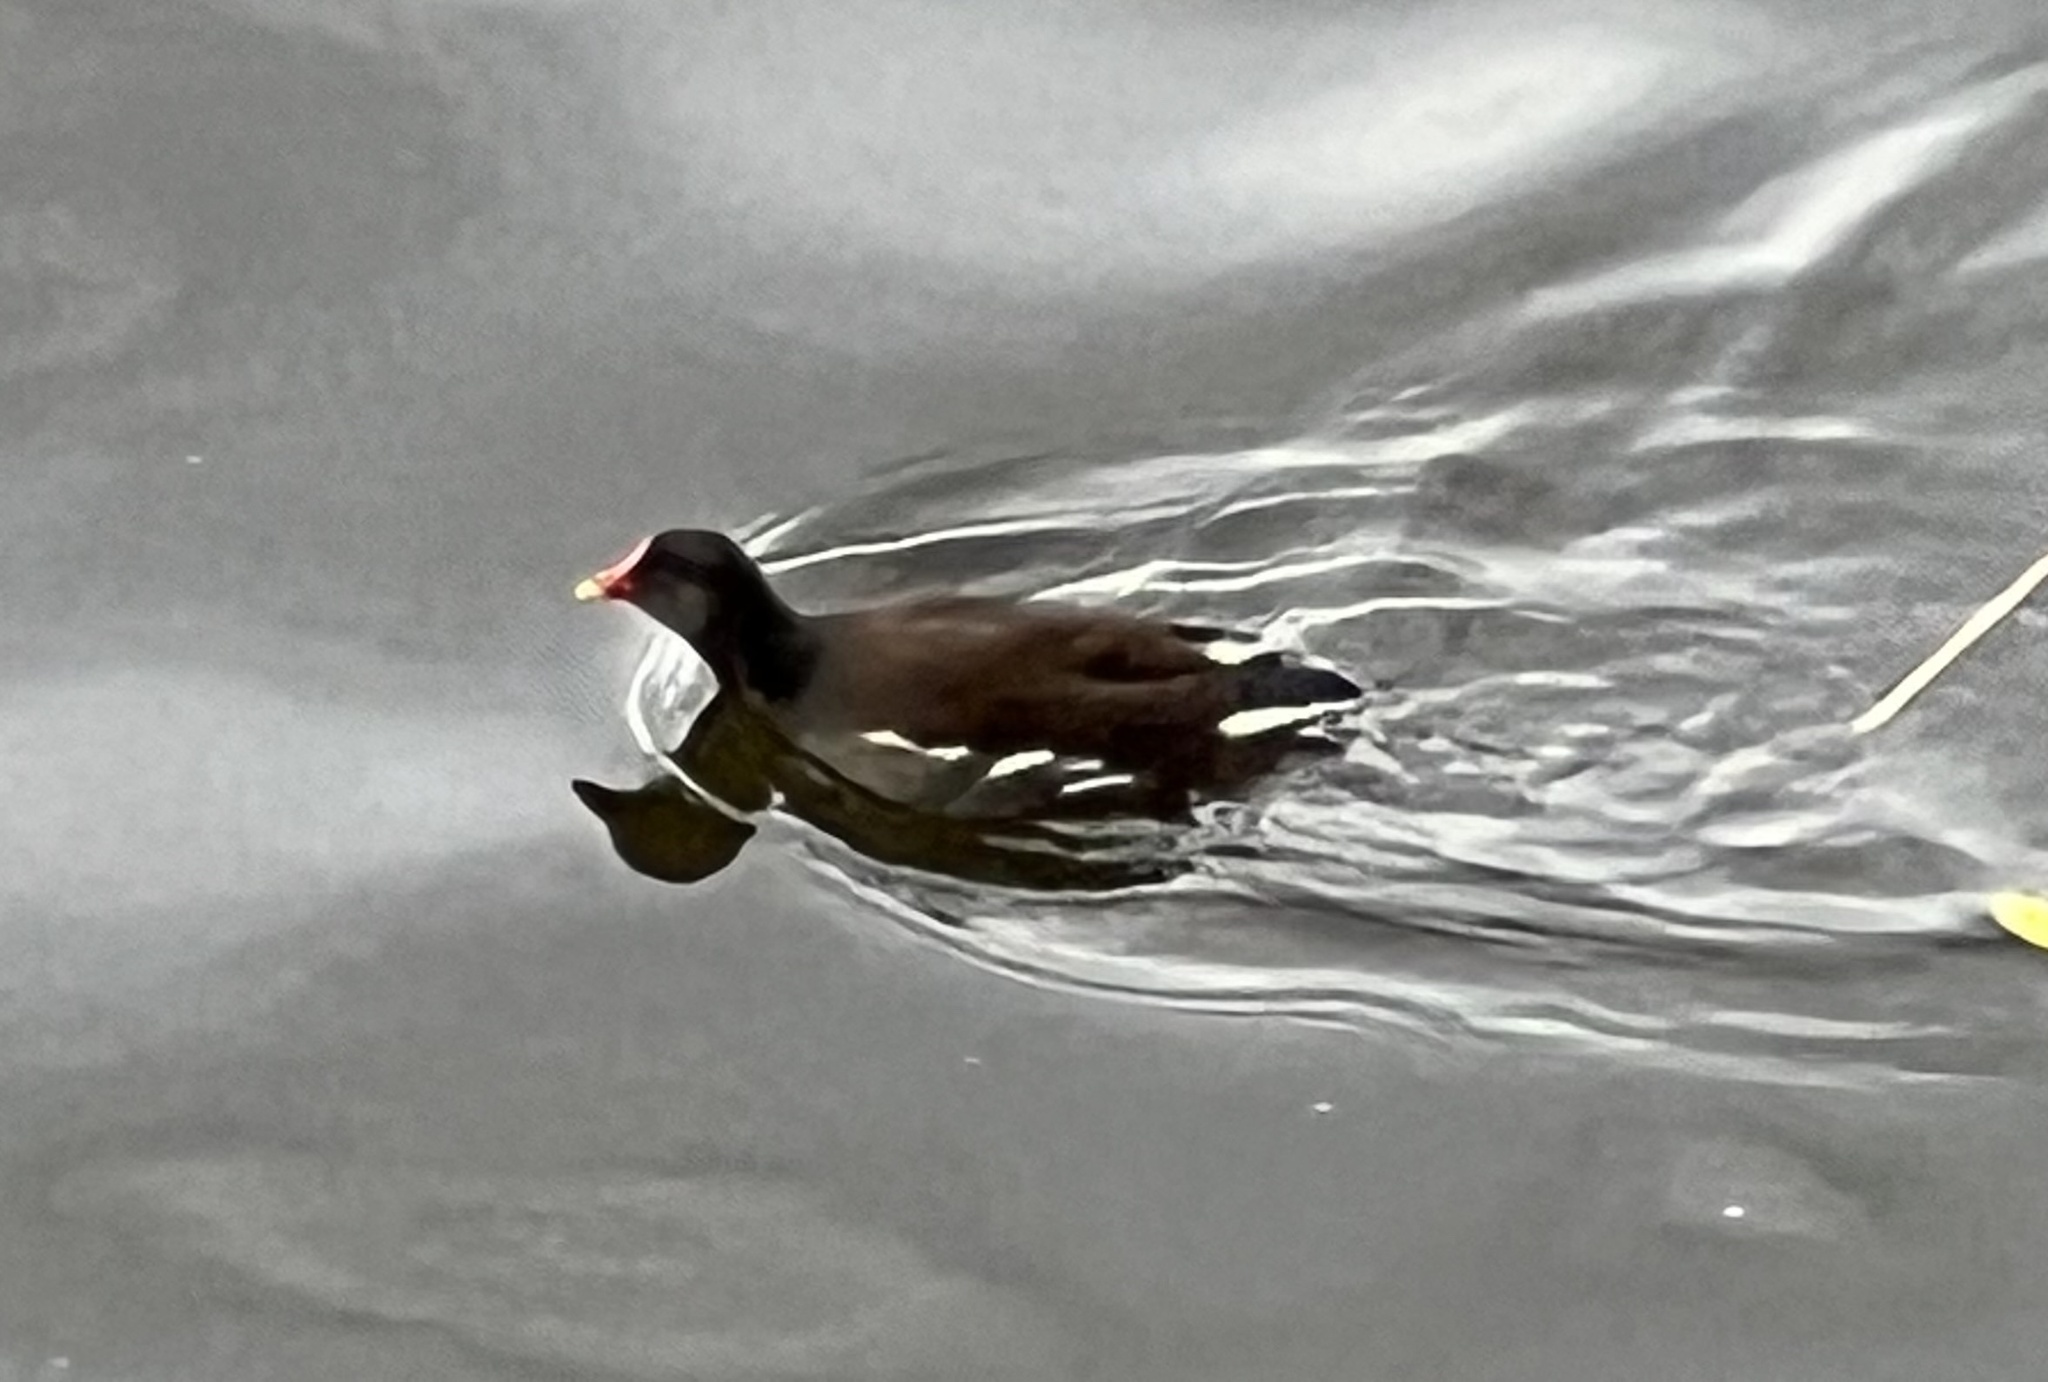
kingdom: Animalia
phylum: Chordata
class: Aves
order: Gruiformes
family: Rallidae
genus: Gallinula
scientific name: Gallinula chloropus
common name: Common moorhen
